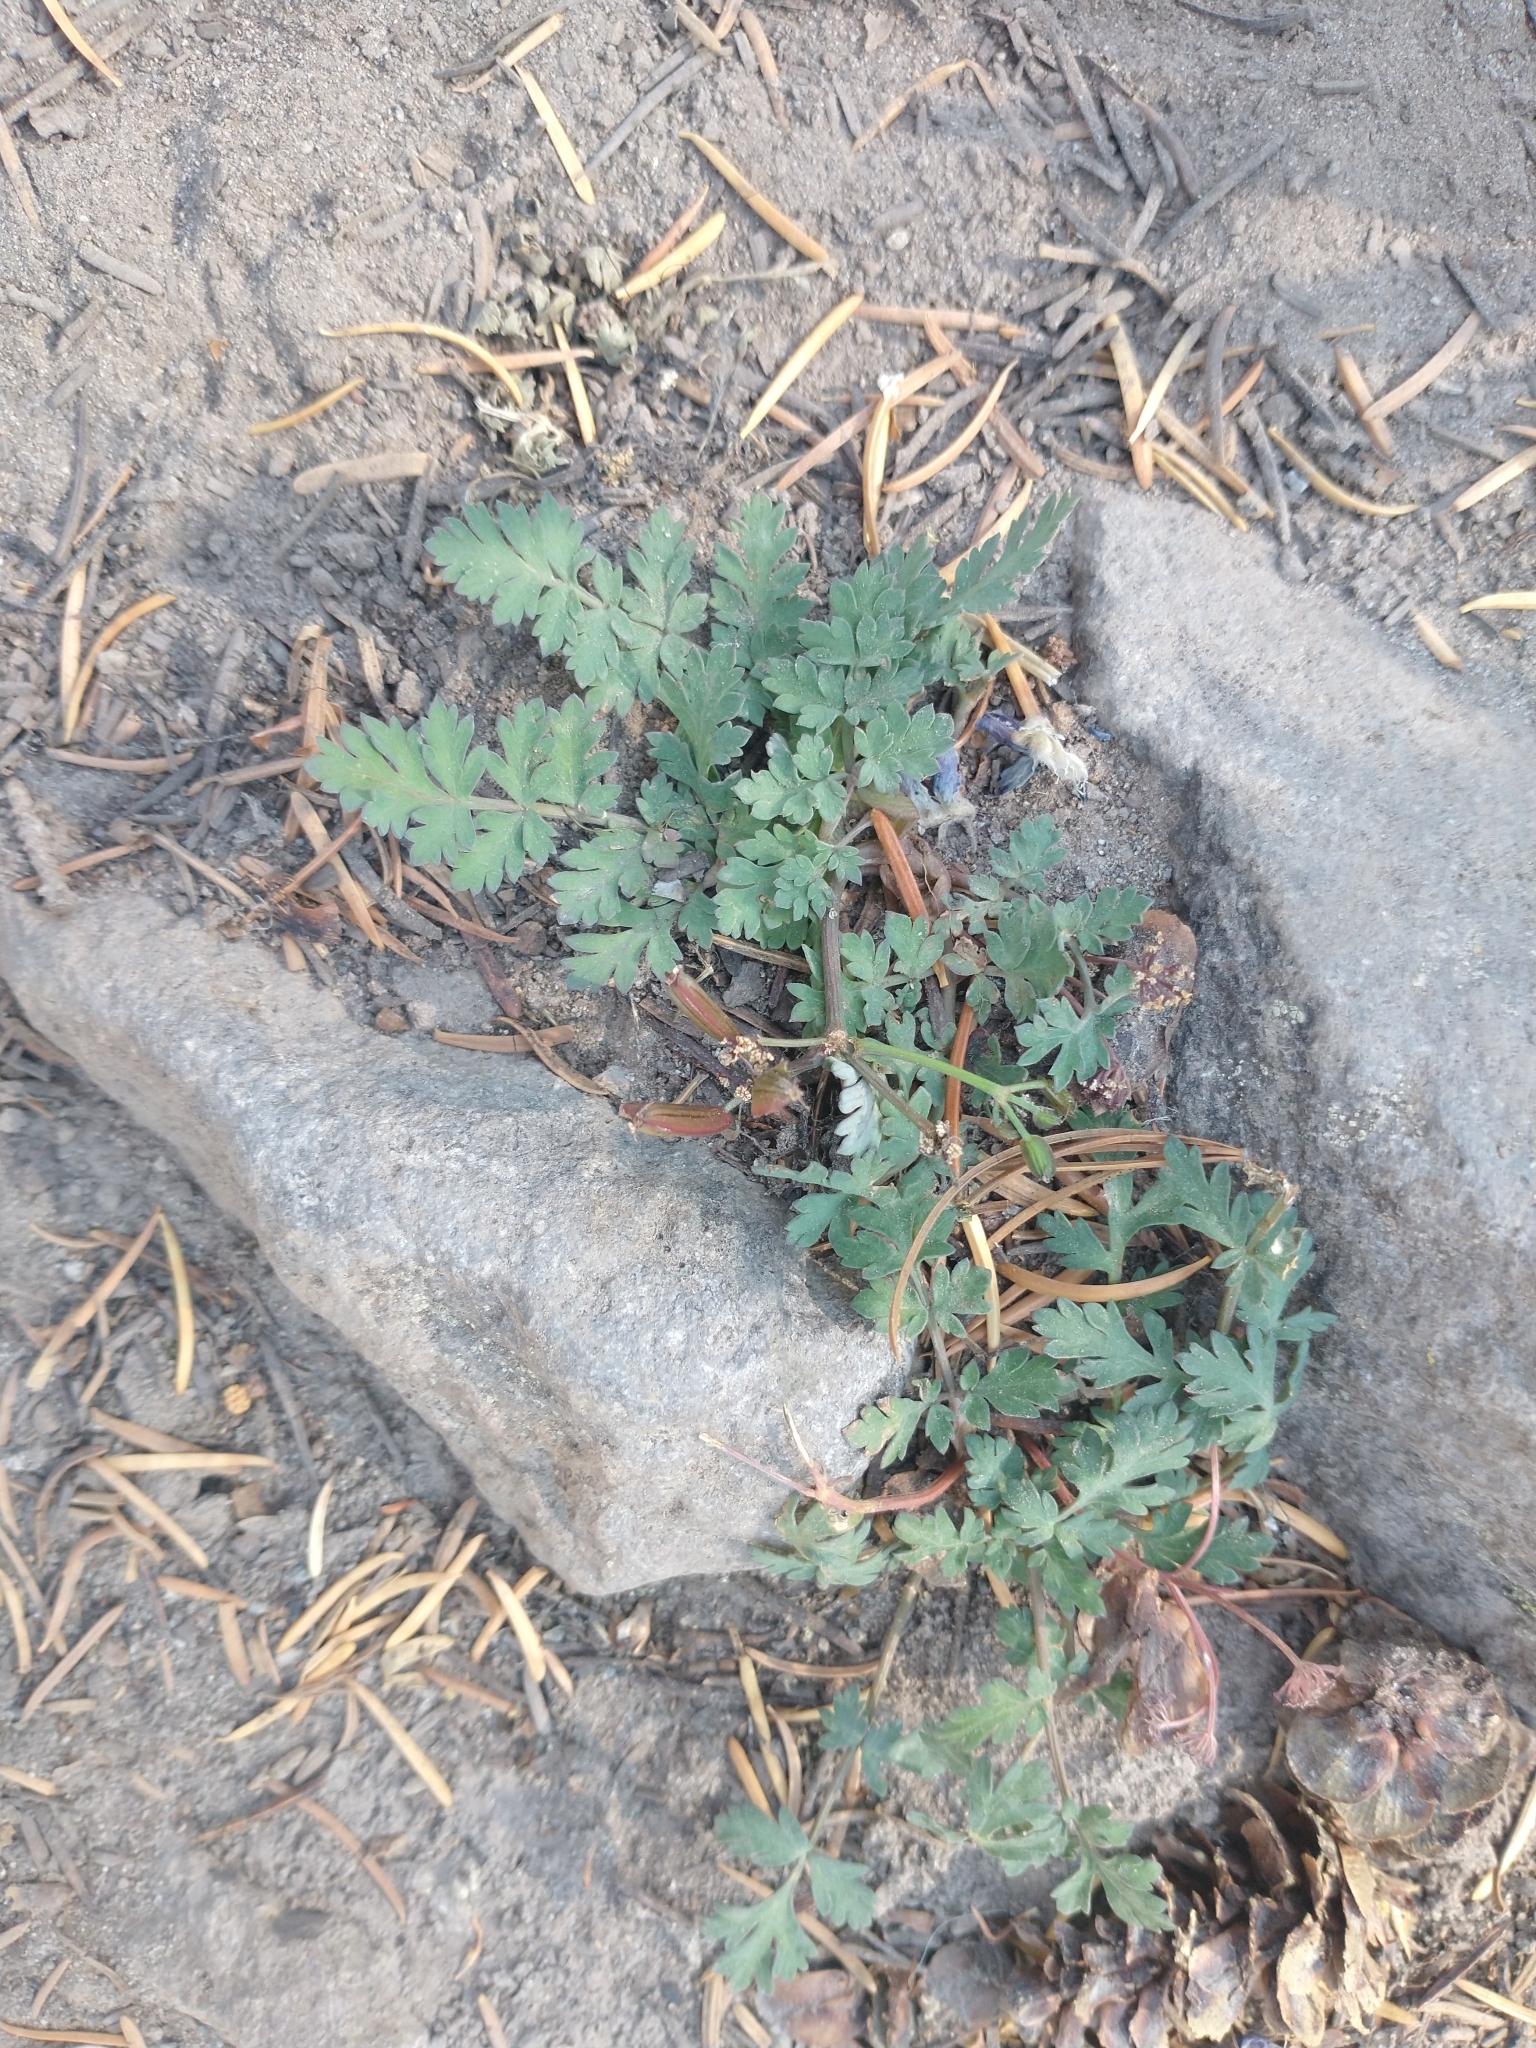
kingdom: Plantae
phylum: Tracheophyta
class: Magnoliopsida
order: Apiales
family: Apiaceae
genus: Lomatium
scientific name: Lomatium martindalei
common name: Cascade desert-parsley
